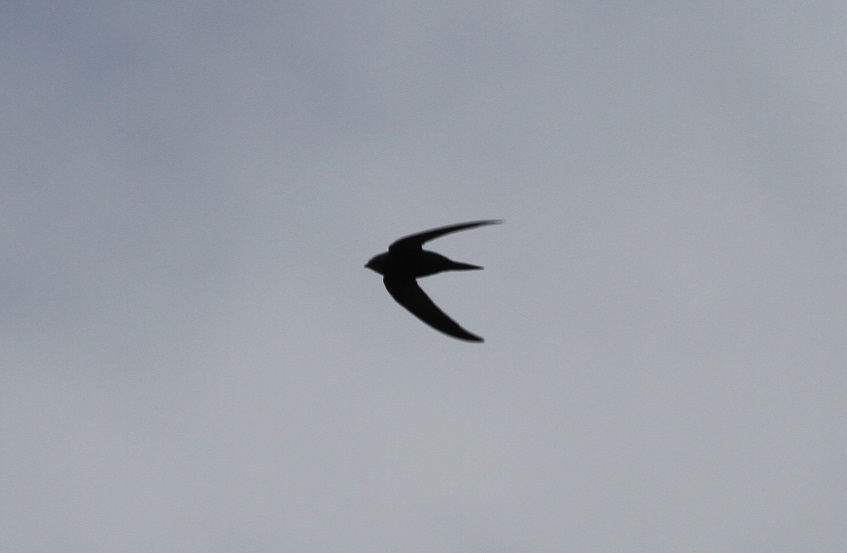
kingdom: Animalia
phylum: Chordata
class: Aves
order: Apodiformes
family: Apodidae
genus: Apus
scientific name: Apus apus
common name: Common swift
